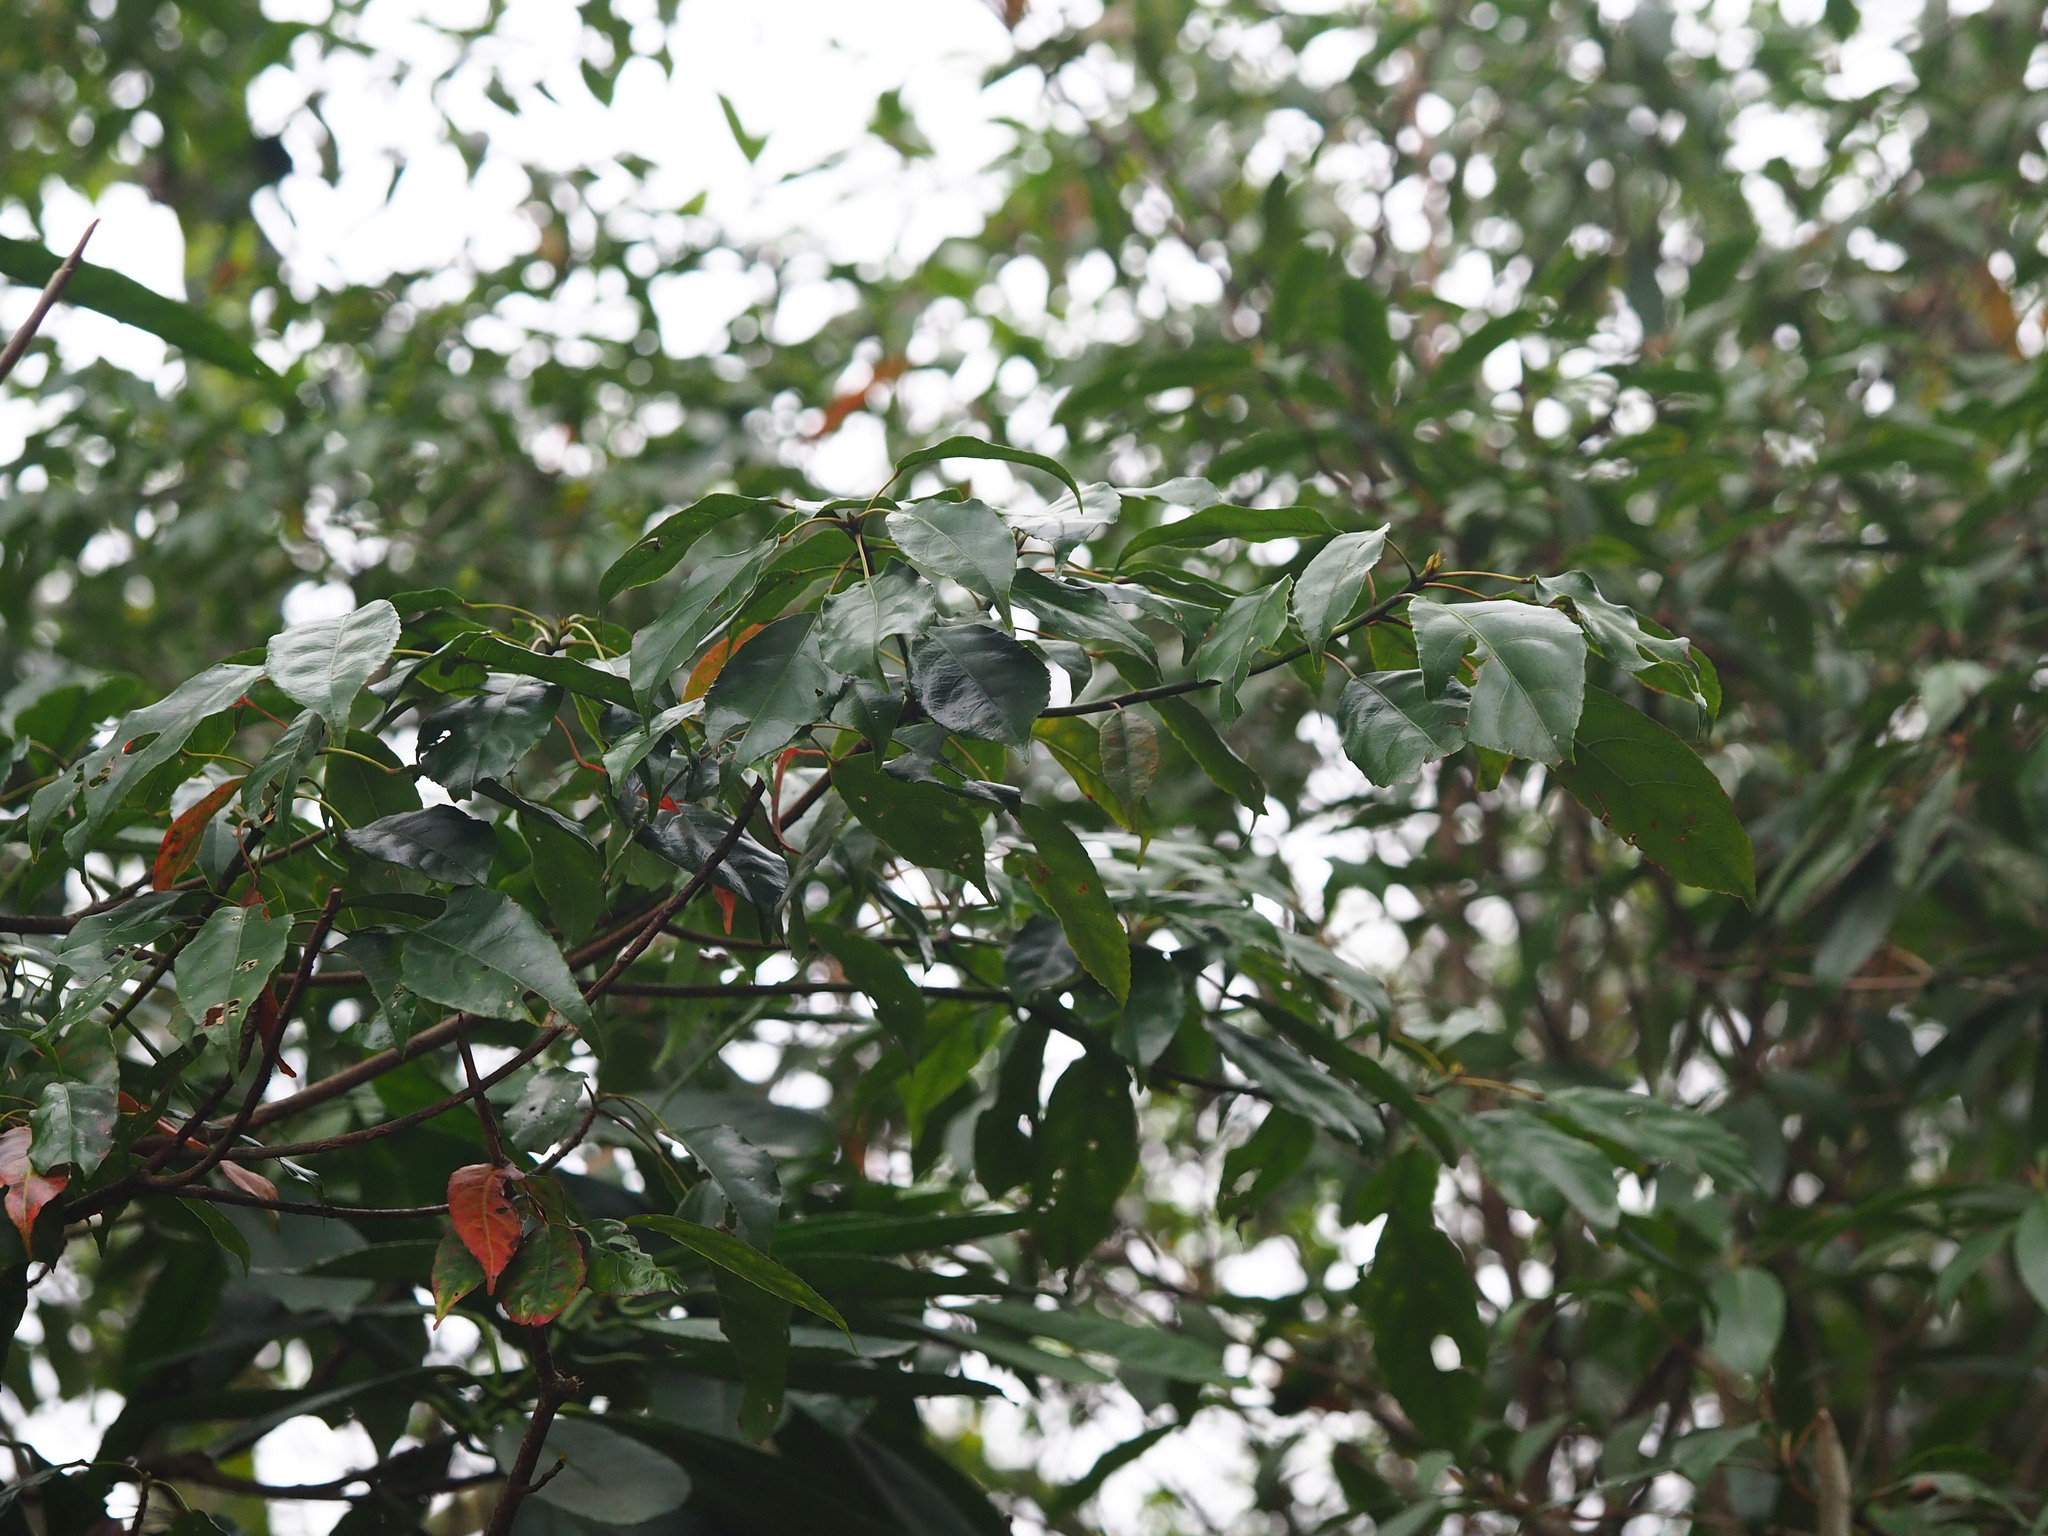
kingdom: Plantae
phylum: Tracheophyta
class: Magnoliopsida
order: Oxalidales
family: Elaeocarpaceae
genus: Elaeocarpus
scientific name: Elaeocarpus japonicus
